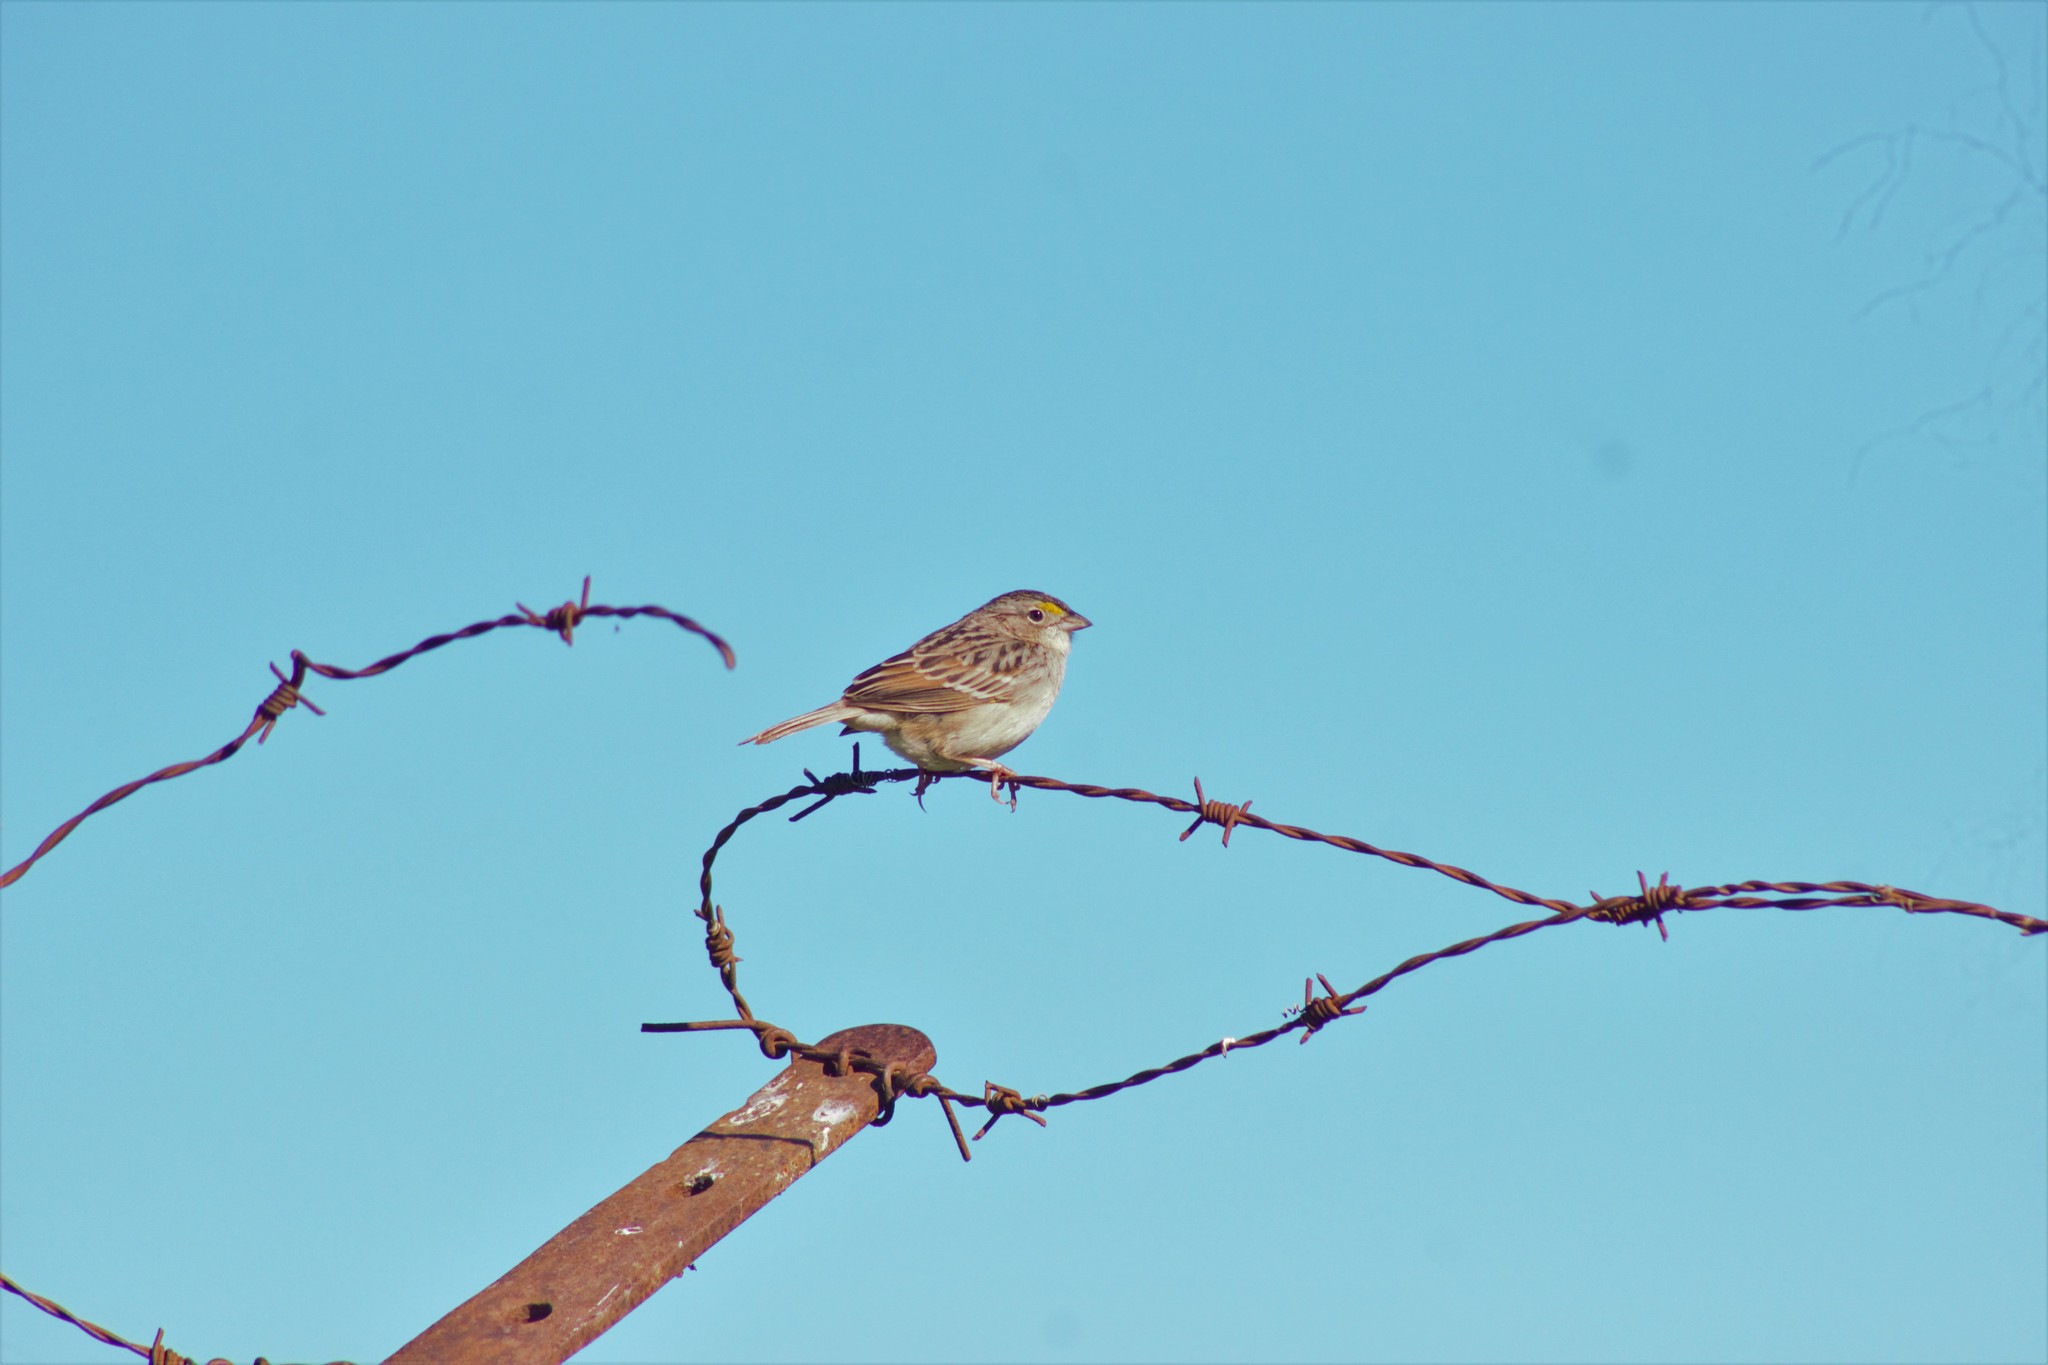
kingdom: Animalia
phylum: Chordata
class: Aves
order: Passeriformes
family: Passerellidae
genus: Ammodramus
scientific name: Ammodramus humeralis
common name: Grassland sparrow
